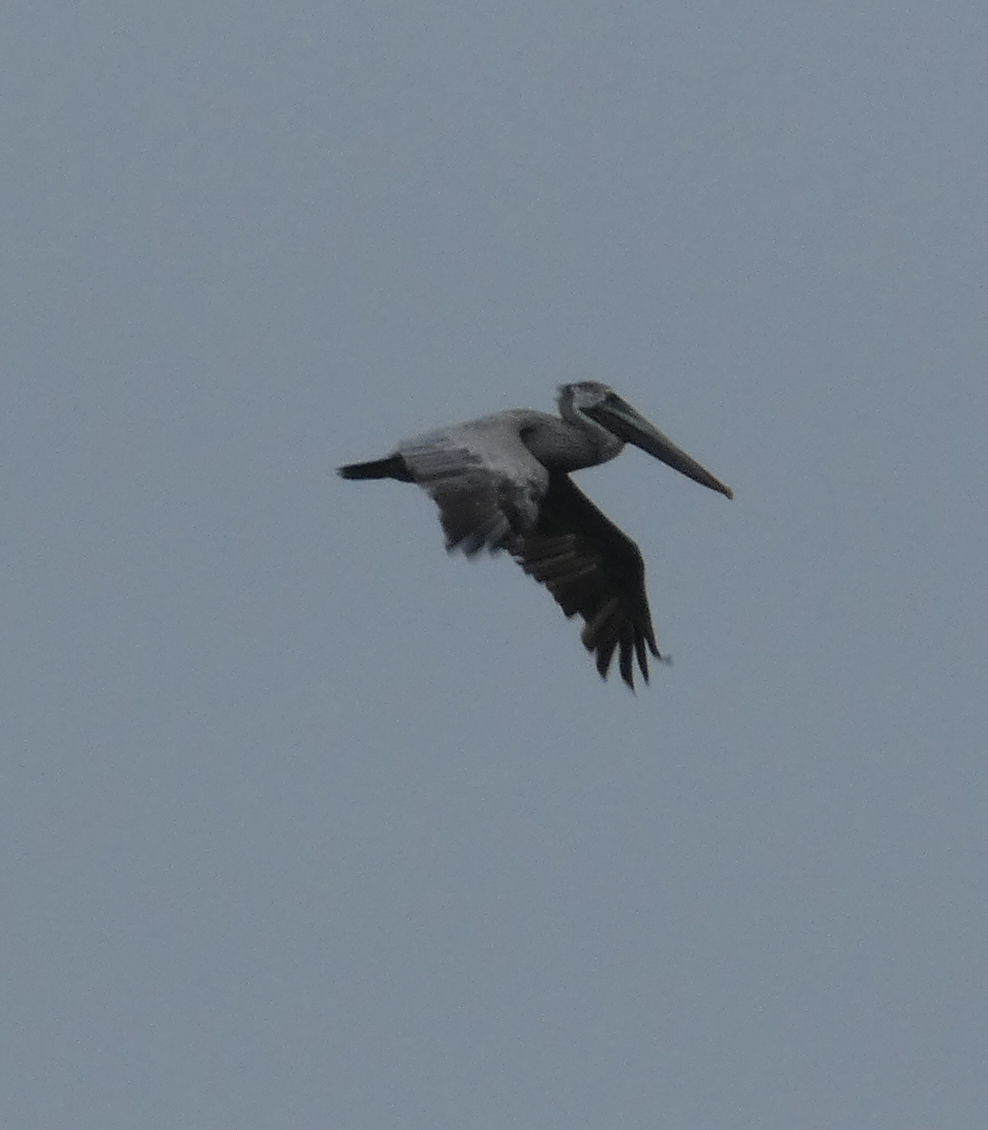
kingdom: Animalia
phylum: Chordata
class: Aves
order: Pelecaniformes
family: Pelecanidae
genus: Pelecanus
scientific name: Pelecanus occidentalis
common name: Brown pelican
